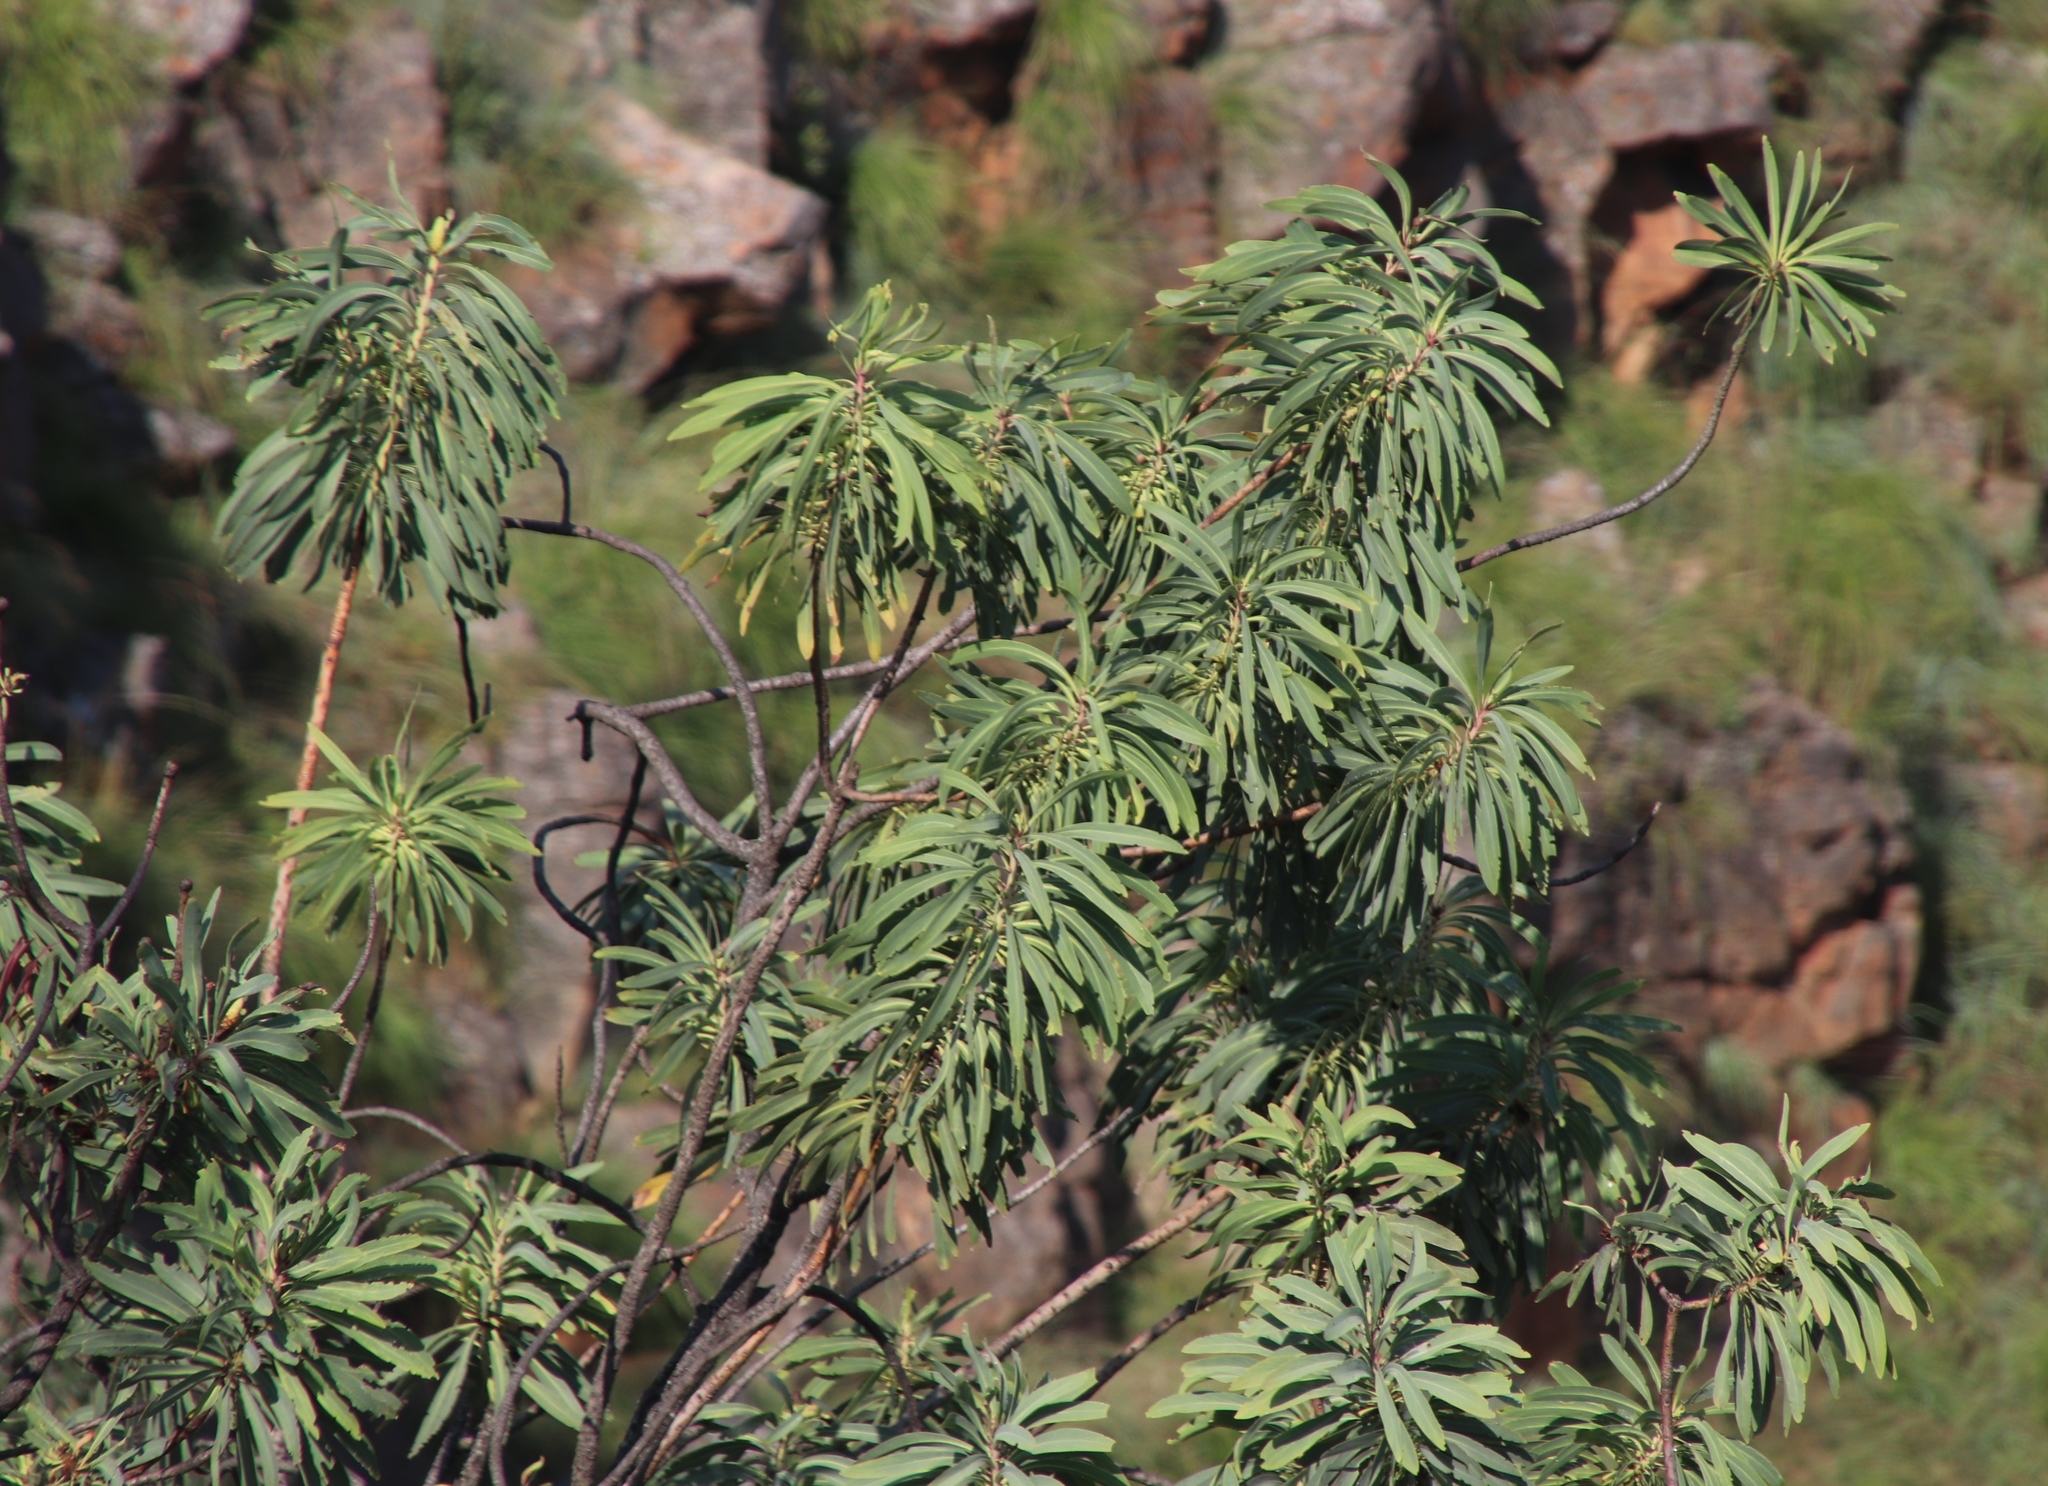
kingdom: Plantae
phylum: Tracheophyta
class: Magnoliopsida
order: Proteales
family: Proteaceae
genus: Protea
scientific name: Protea caffra
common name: Common sugarbush
